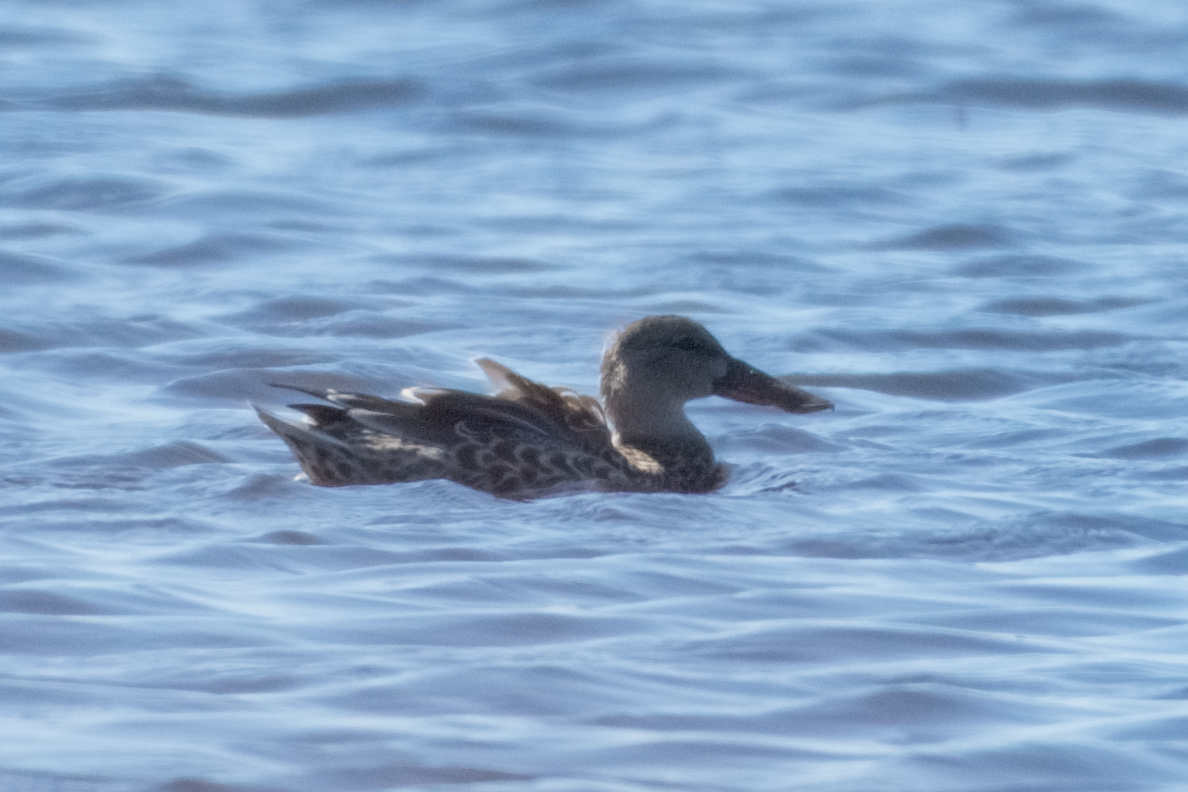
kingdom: Animalia
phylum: Chordata
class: Aves
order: Anseriformes
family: Anatidae
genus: Spatula
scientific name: Spatula clypeata
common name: Northern shoveler
